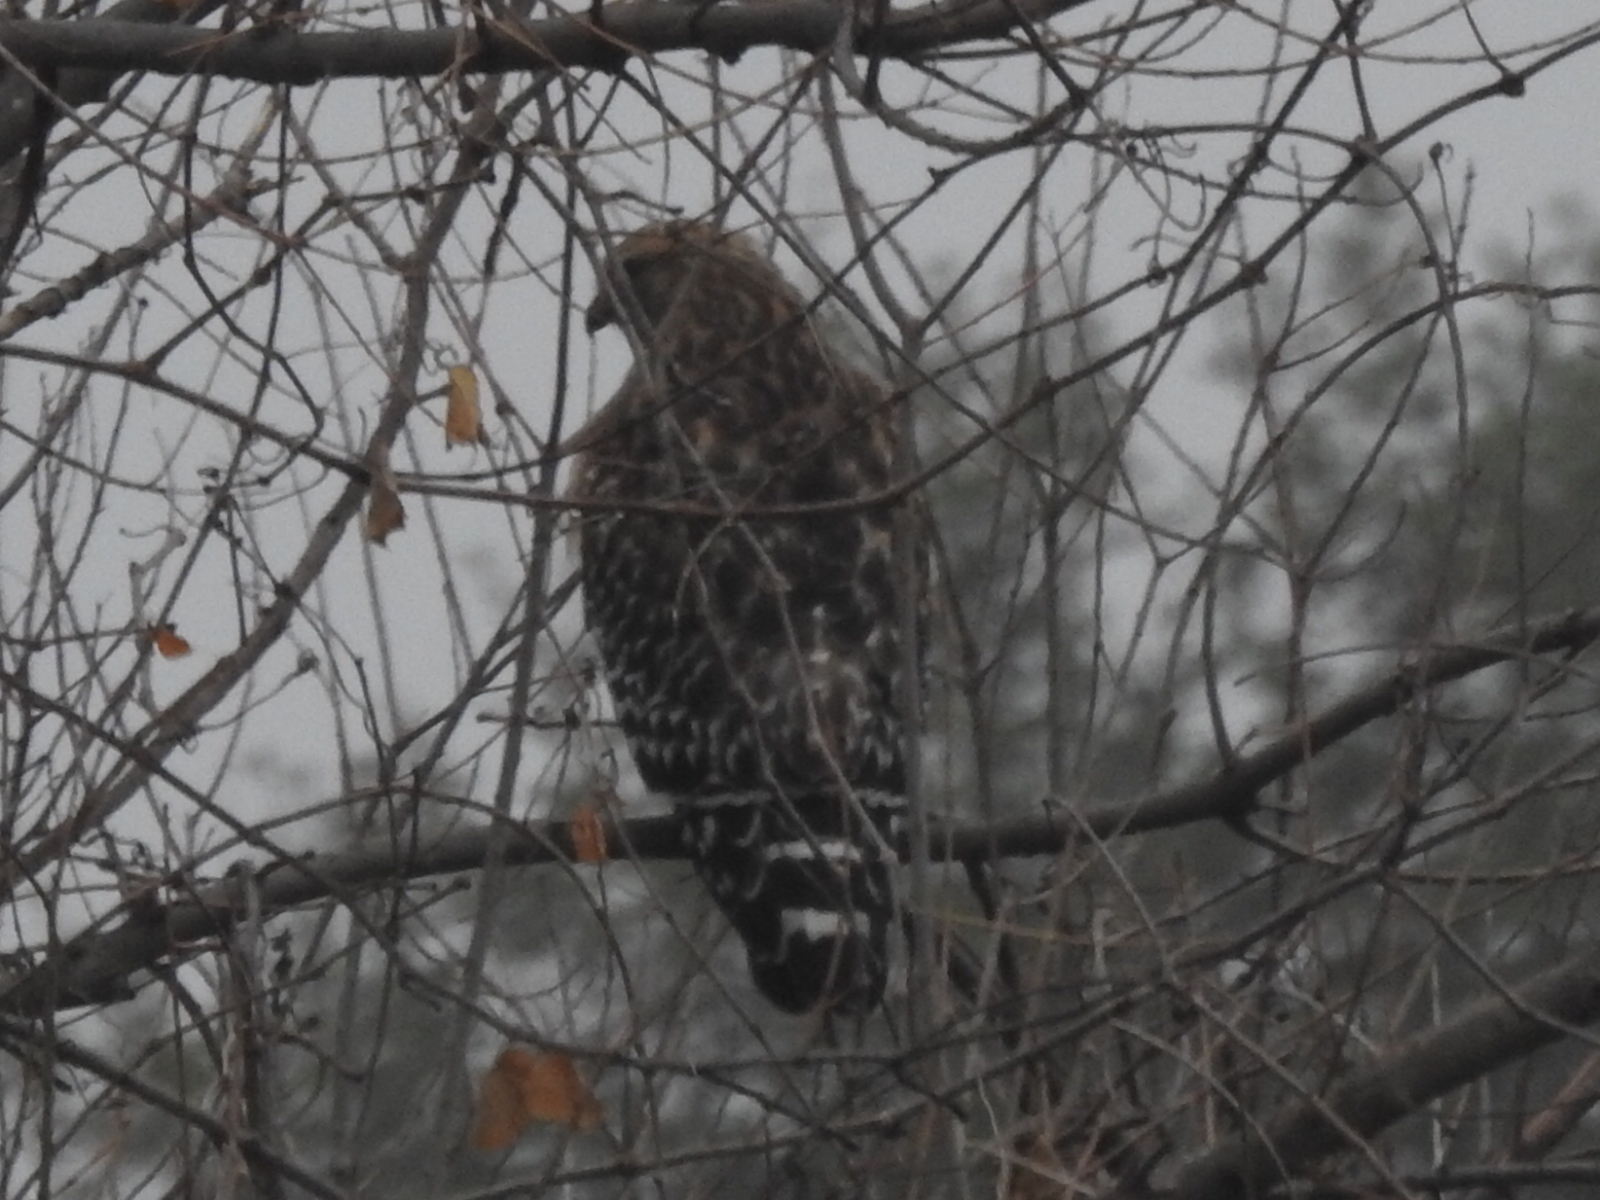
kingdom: Animalia
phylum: Chordata
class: Aves
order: Accipitriformes
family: Accipitridae
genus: Buteo
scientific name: Buteo lineatus
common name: Red-shouldered hawk
